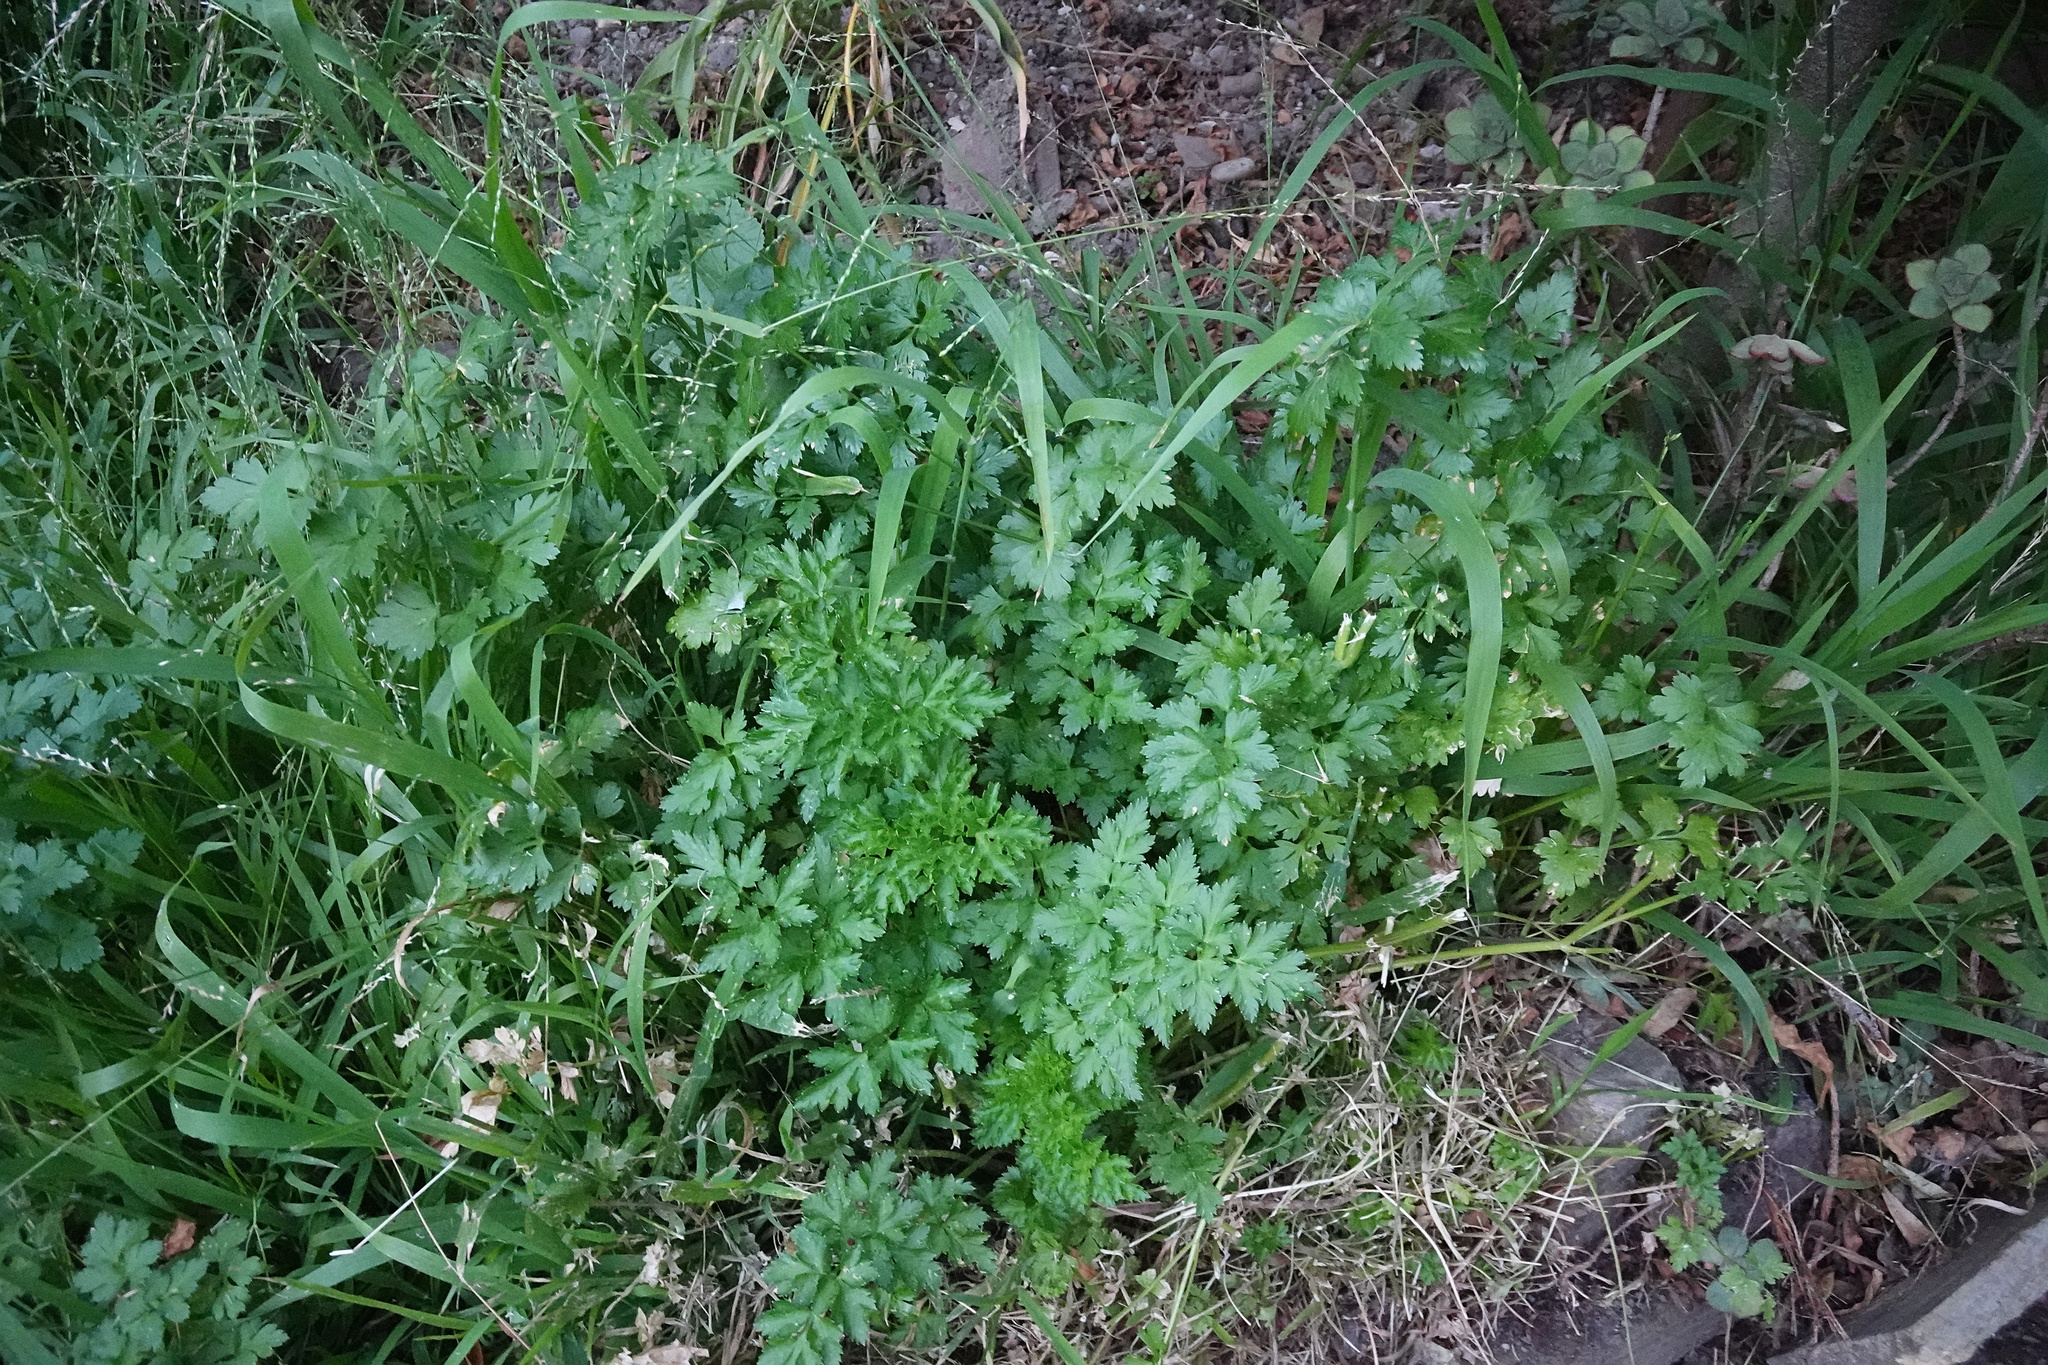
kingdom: Plantae
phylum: Tracheophyta
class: Magnoliopsida
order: Apiales
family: Apiaceae
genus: Petroselinum
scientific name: Petroselinum crispum
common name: Parsley
